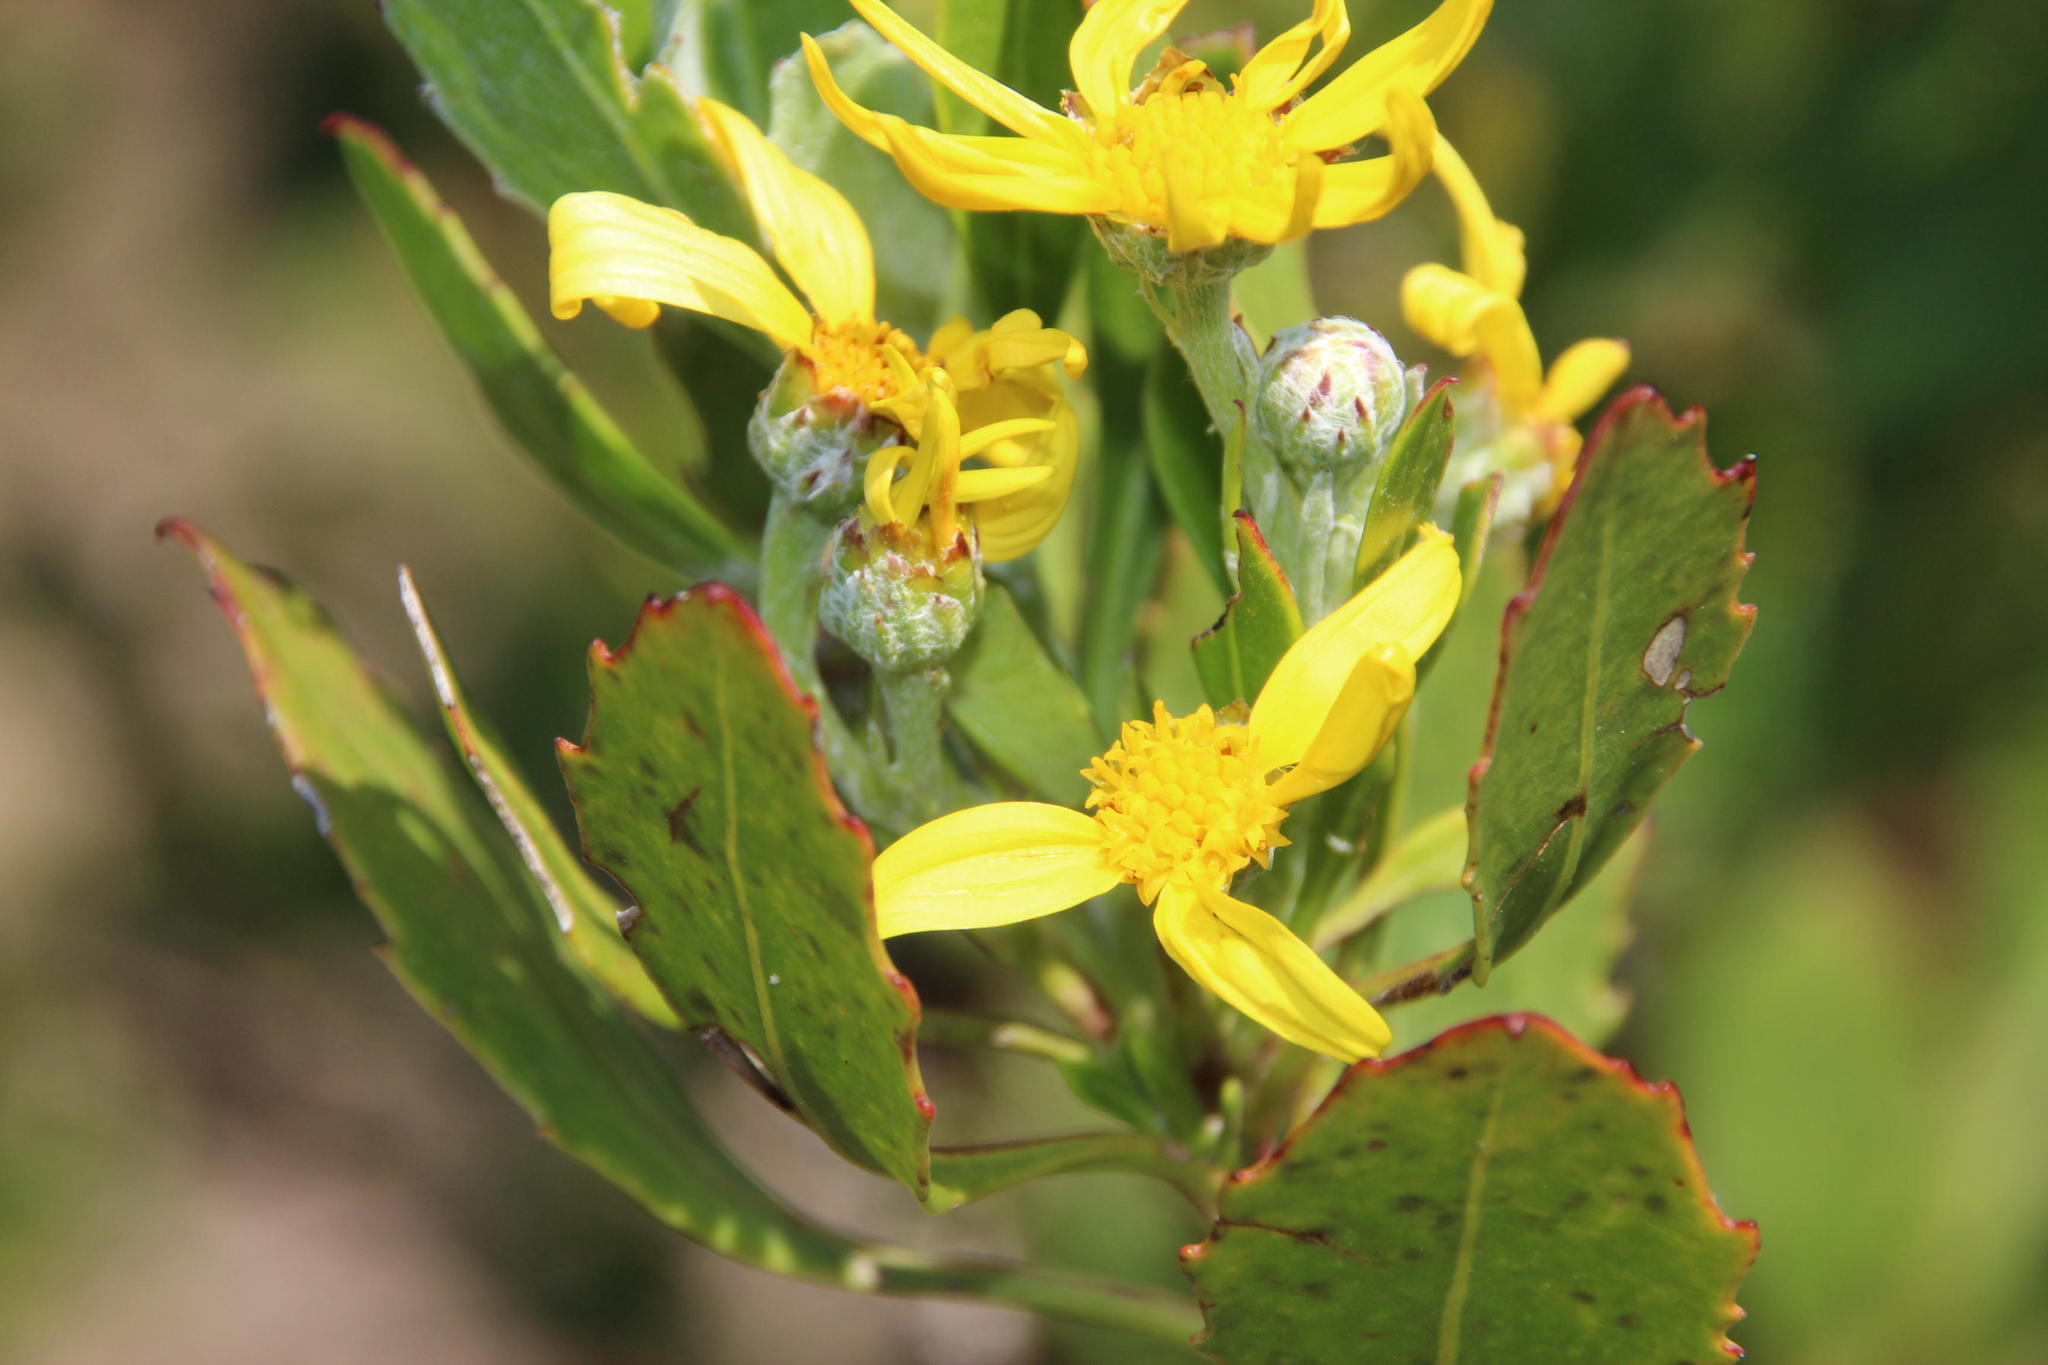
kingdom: Plantae
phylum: Tracheophyta
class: Magnoliopsida
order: Asterales
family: Asteraceae
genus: Osteospermum
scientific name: Osteospermum moniliferum
